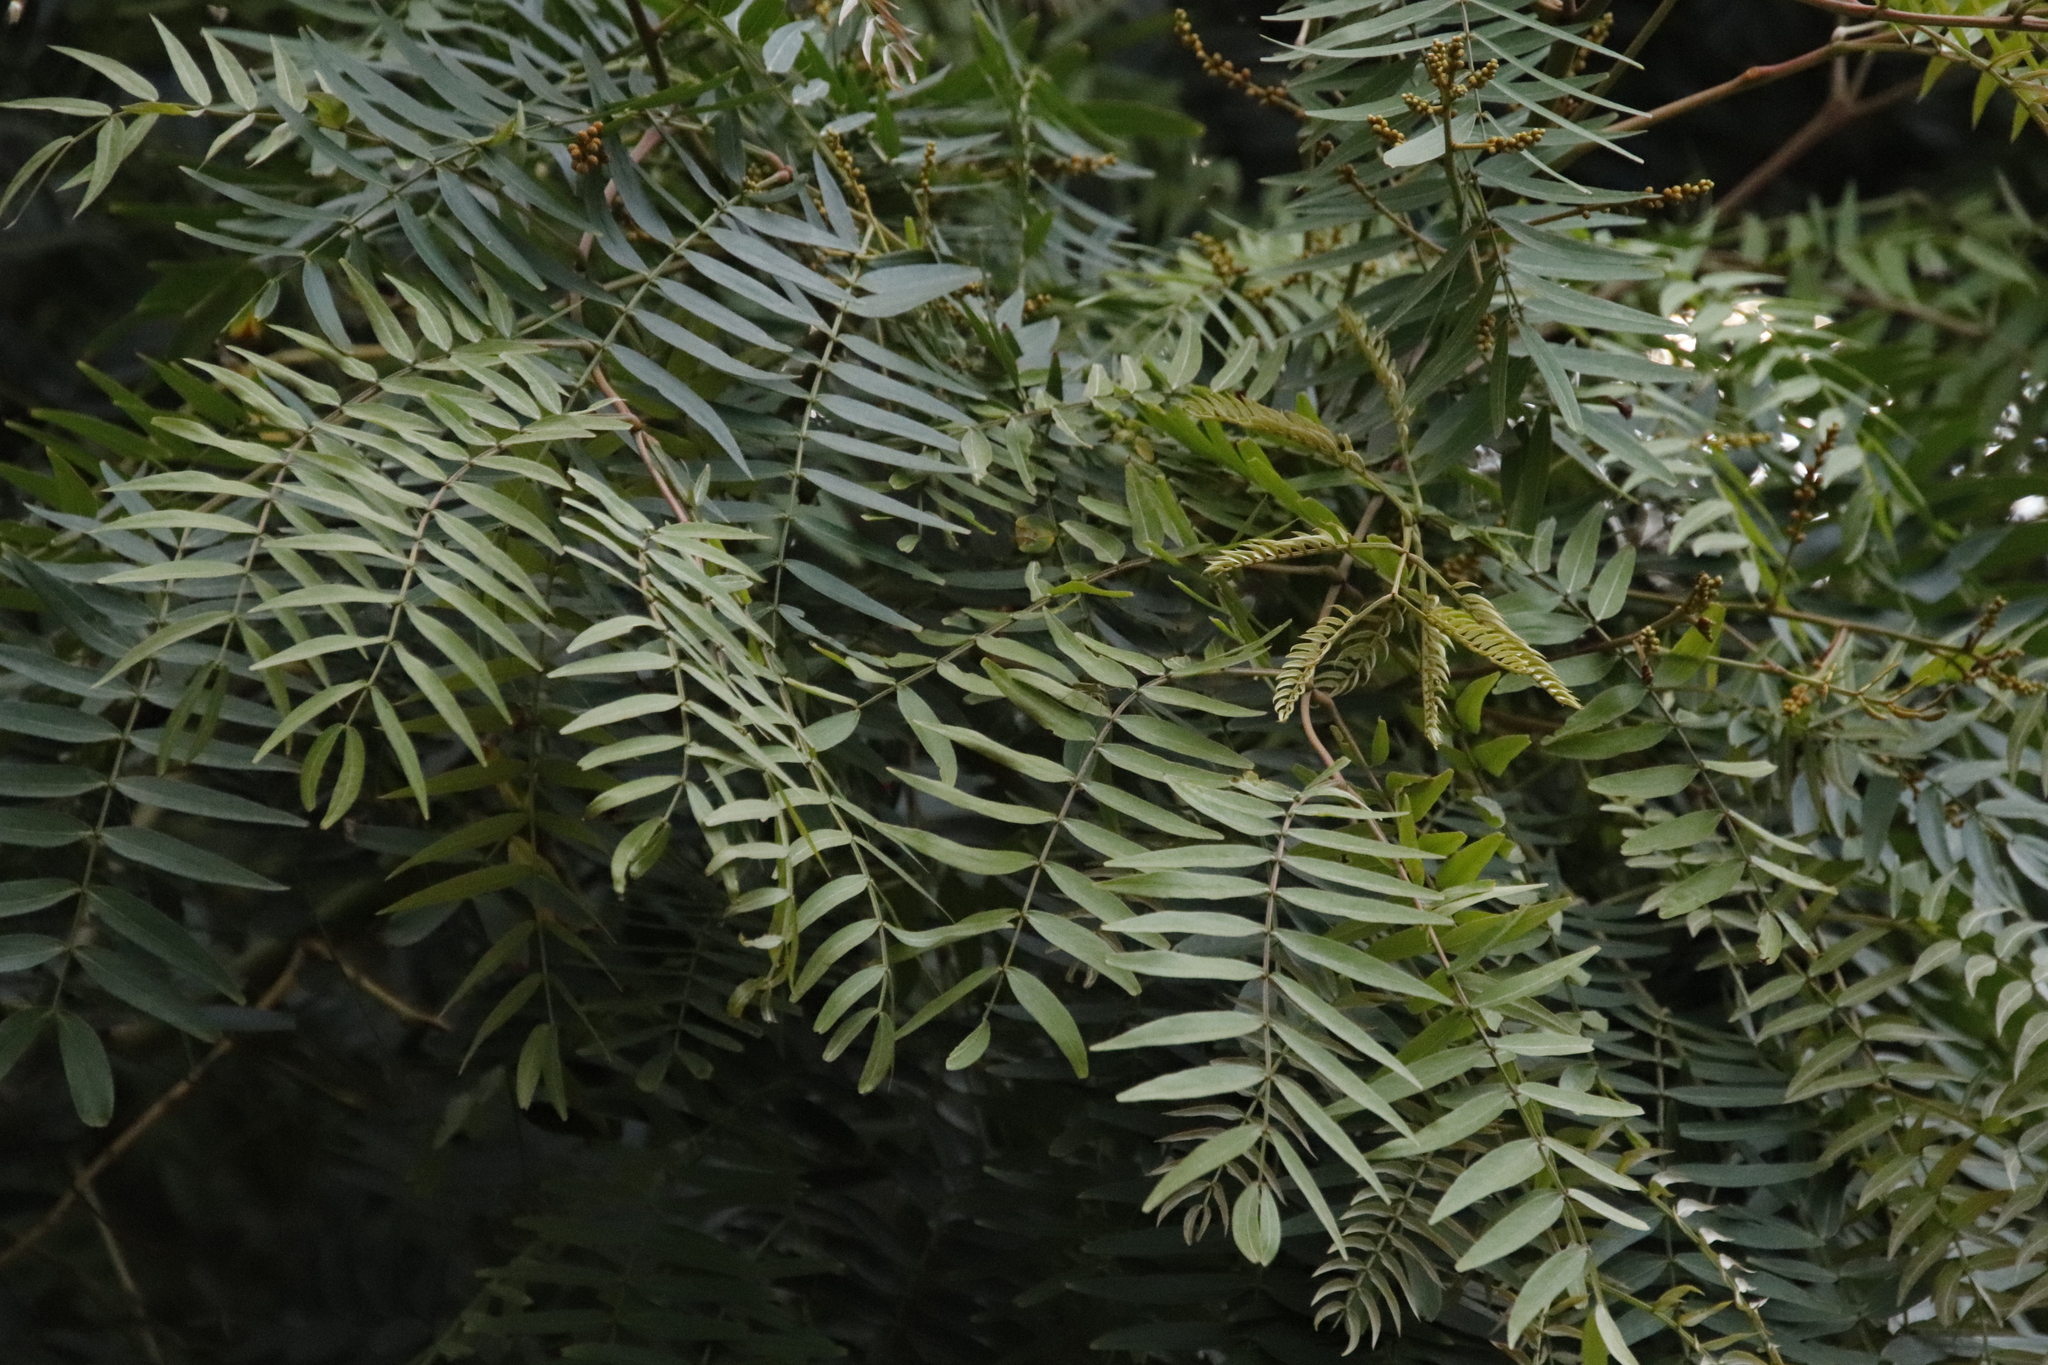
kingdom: Plantae
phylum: Tracheophyta
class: Magnoliopsida
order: Fabales
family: Fabaceae
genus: Acacia
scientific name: Acacia elata
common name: Cedar wattle
